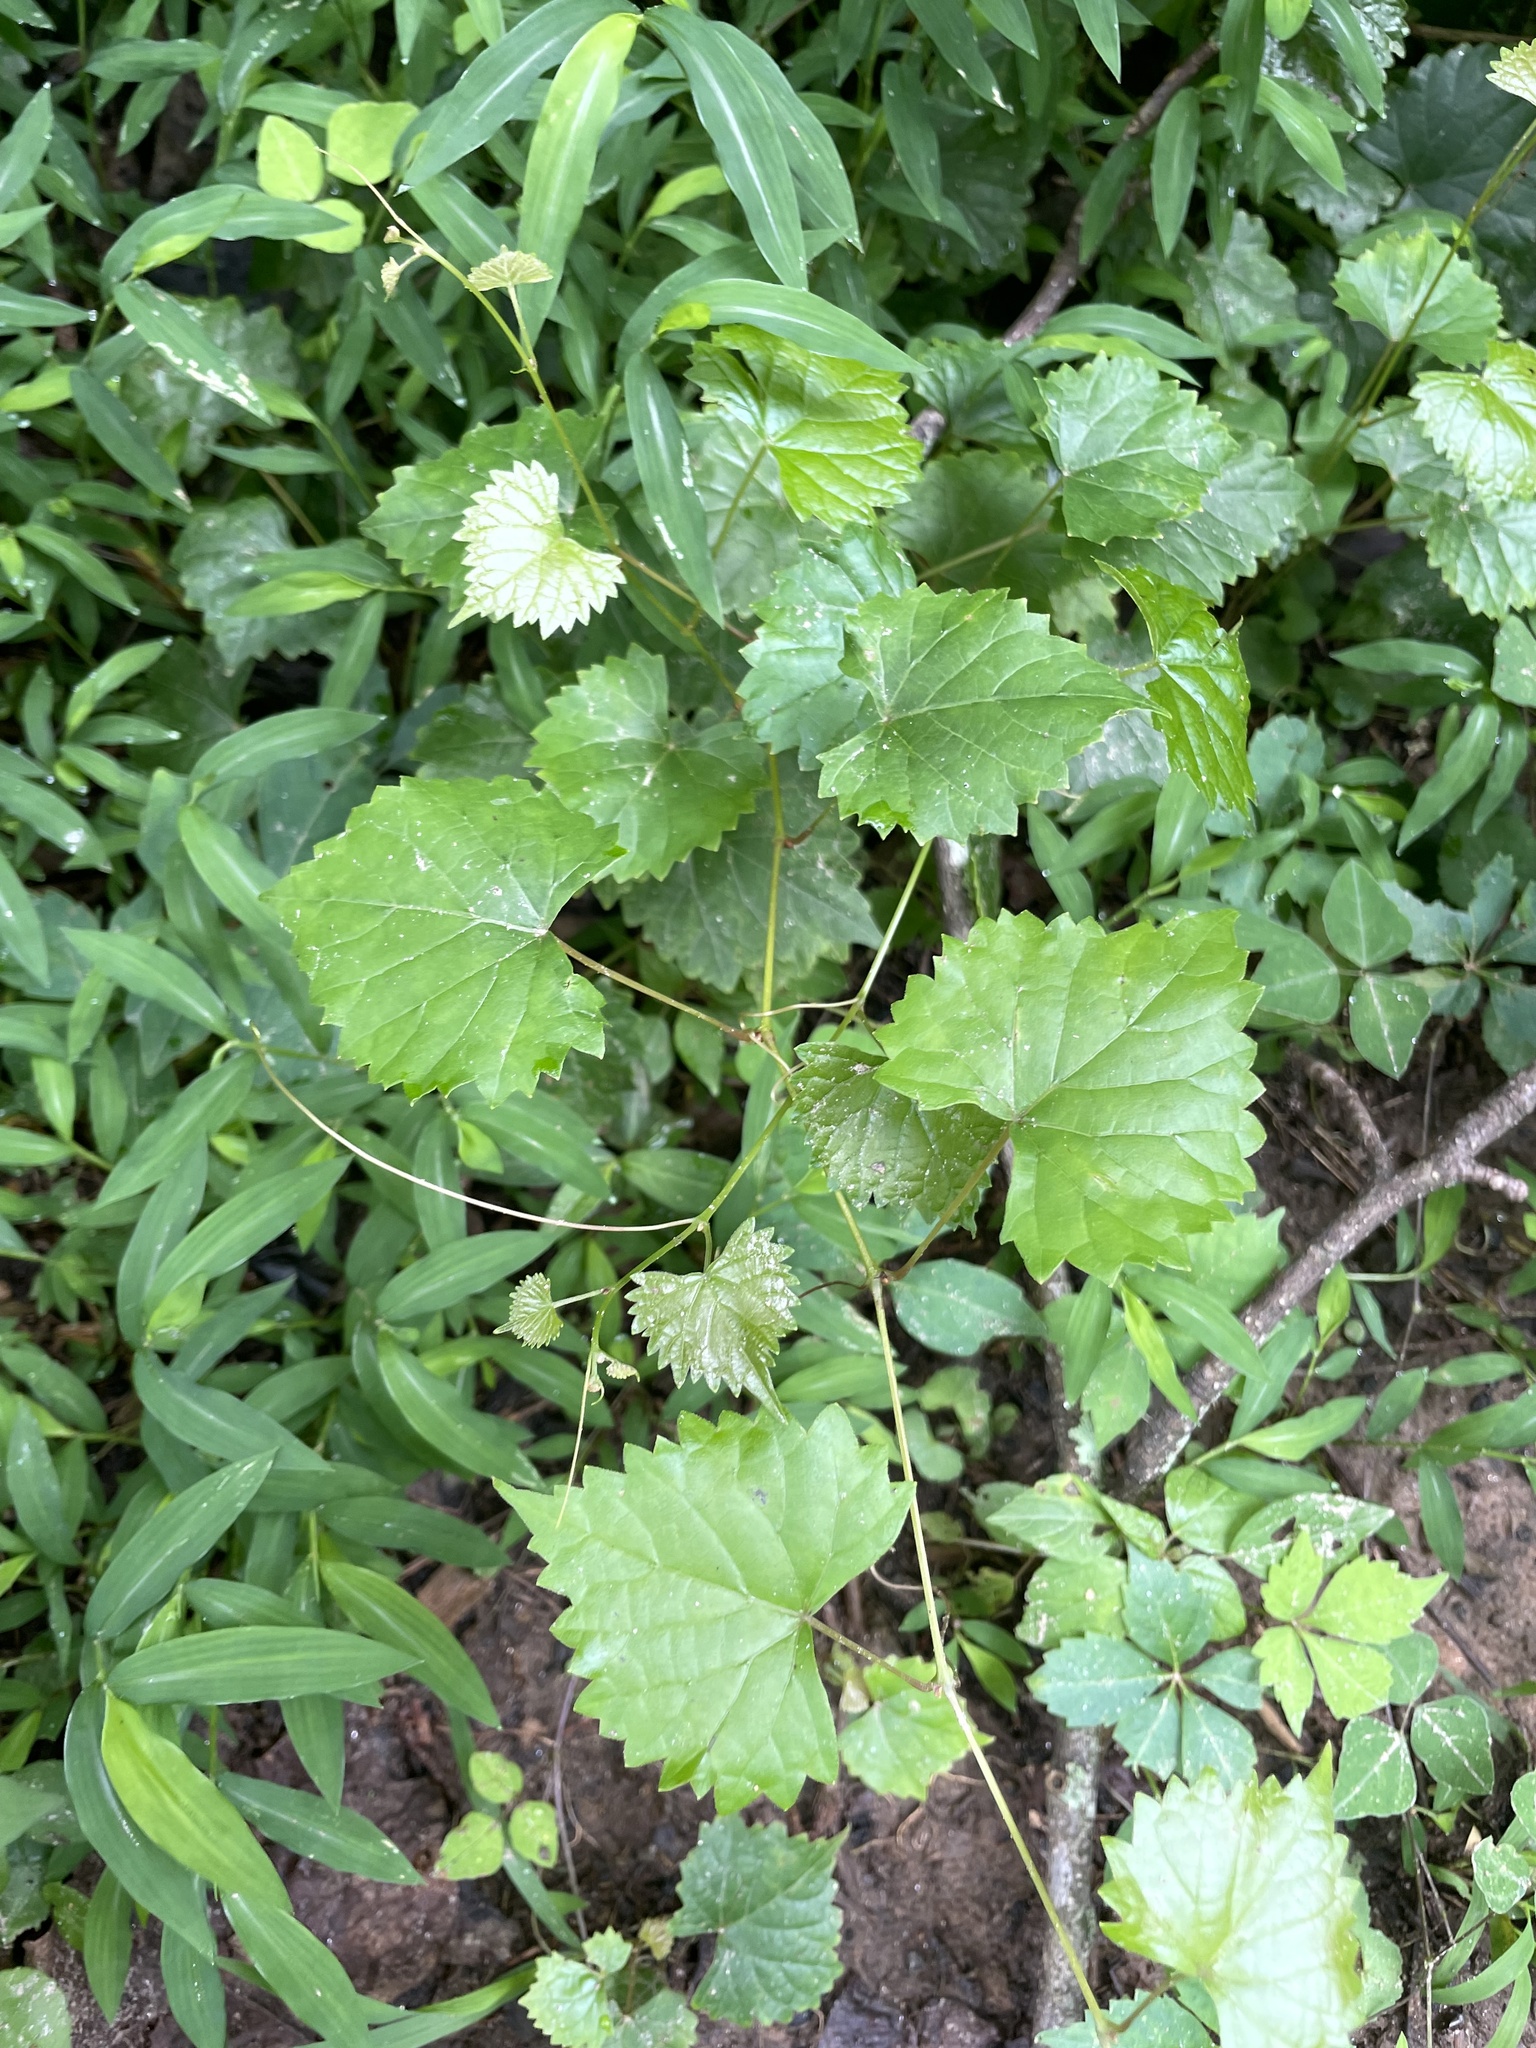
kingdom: Plantae
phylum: Tracheophyta
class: Magnoliopsida
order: Vitales
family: Vitaceae
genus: Vitis
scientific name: Vitis rotundifolia
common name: Muscadine grape
